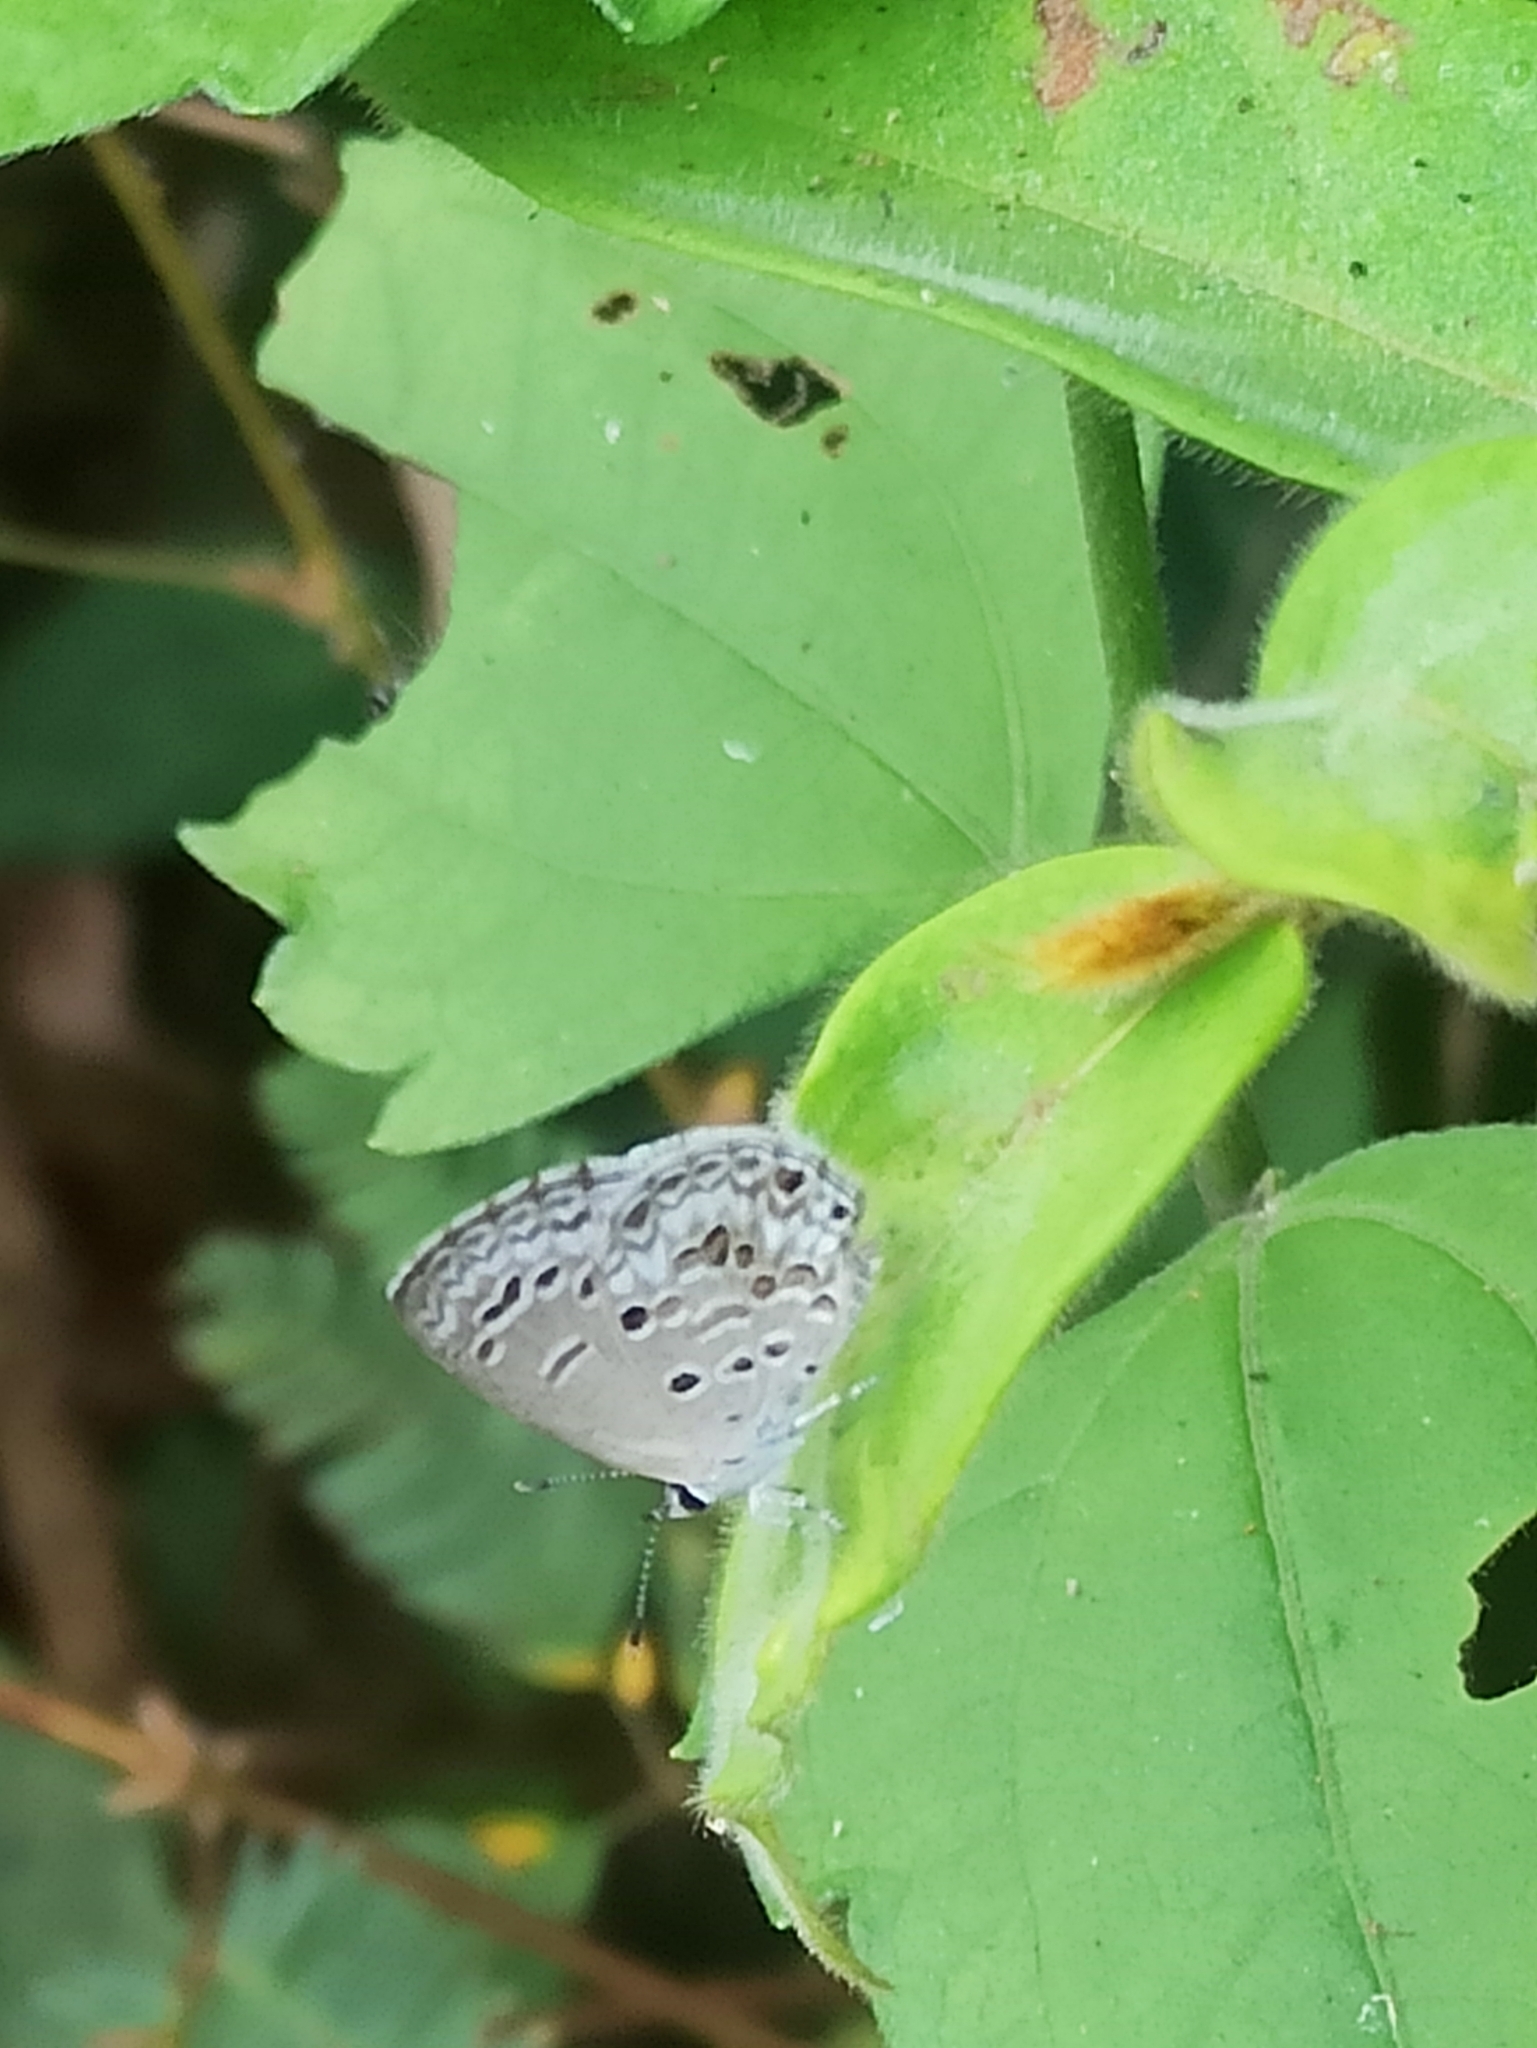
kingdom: Animalia
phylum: Arthropoda
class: Insecta
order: Lepidoptera
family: Lycaenidae
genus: Chilades
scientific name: Chilades laius
